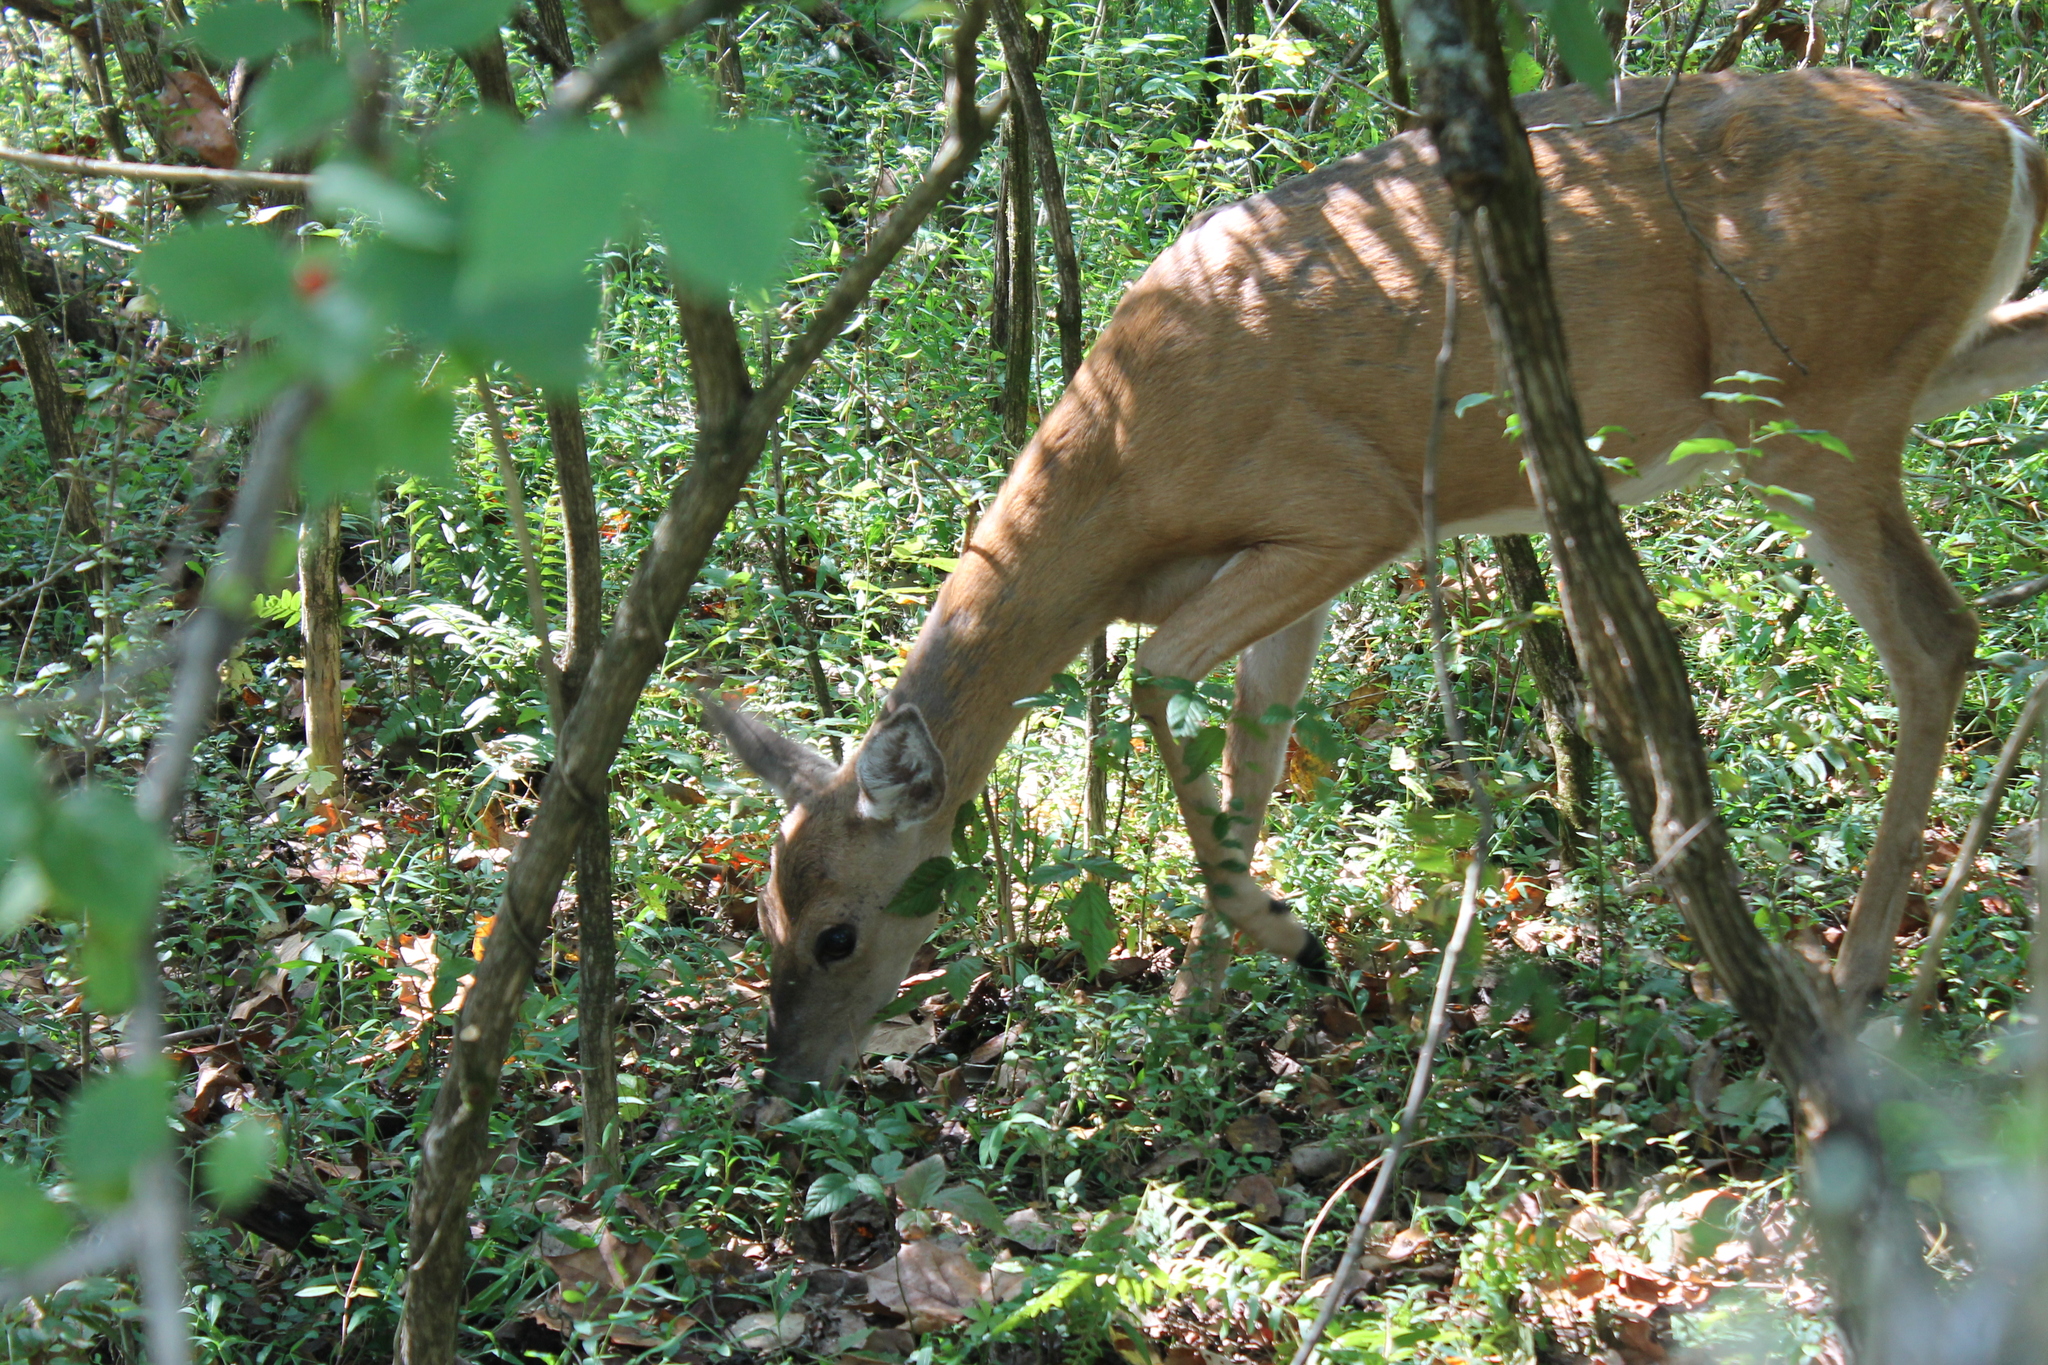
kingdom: Animalia
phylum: Chordata
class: Mammalia
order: Artiodactyla
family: Cervidae
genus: Odocoileus
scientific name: Odocoileus virginianus
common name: White-tailed deer
